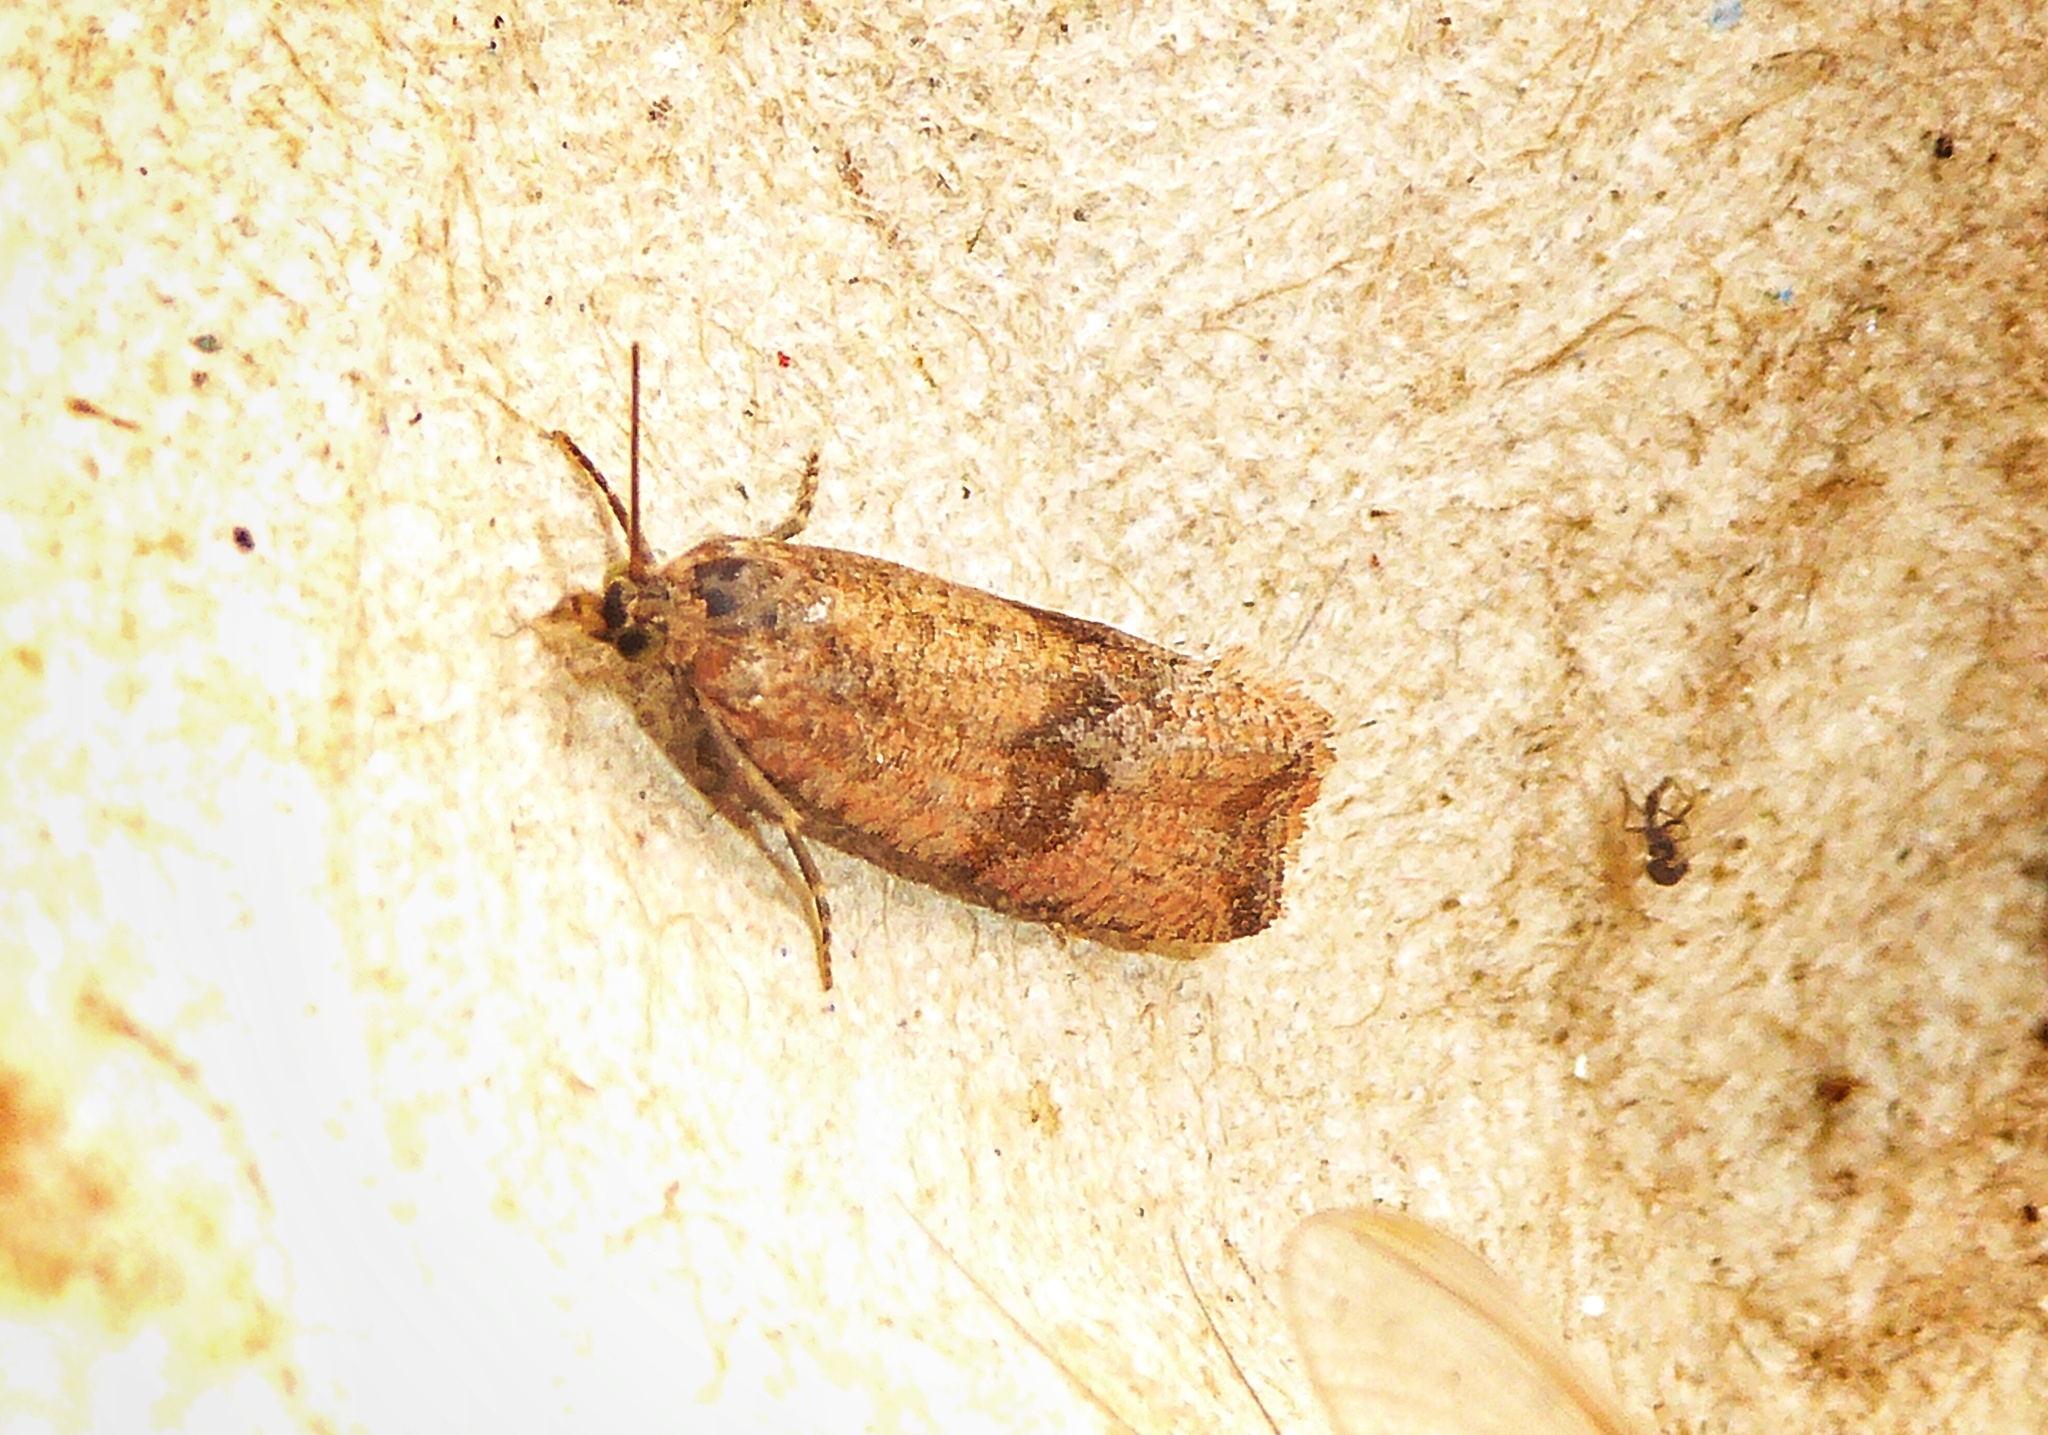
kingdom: Animalia
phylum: Arthropoda
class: Insecta
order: Lepidoptera
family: Tortricidae
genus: Celypha
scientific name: Celypha striana
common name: Barred marble
